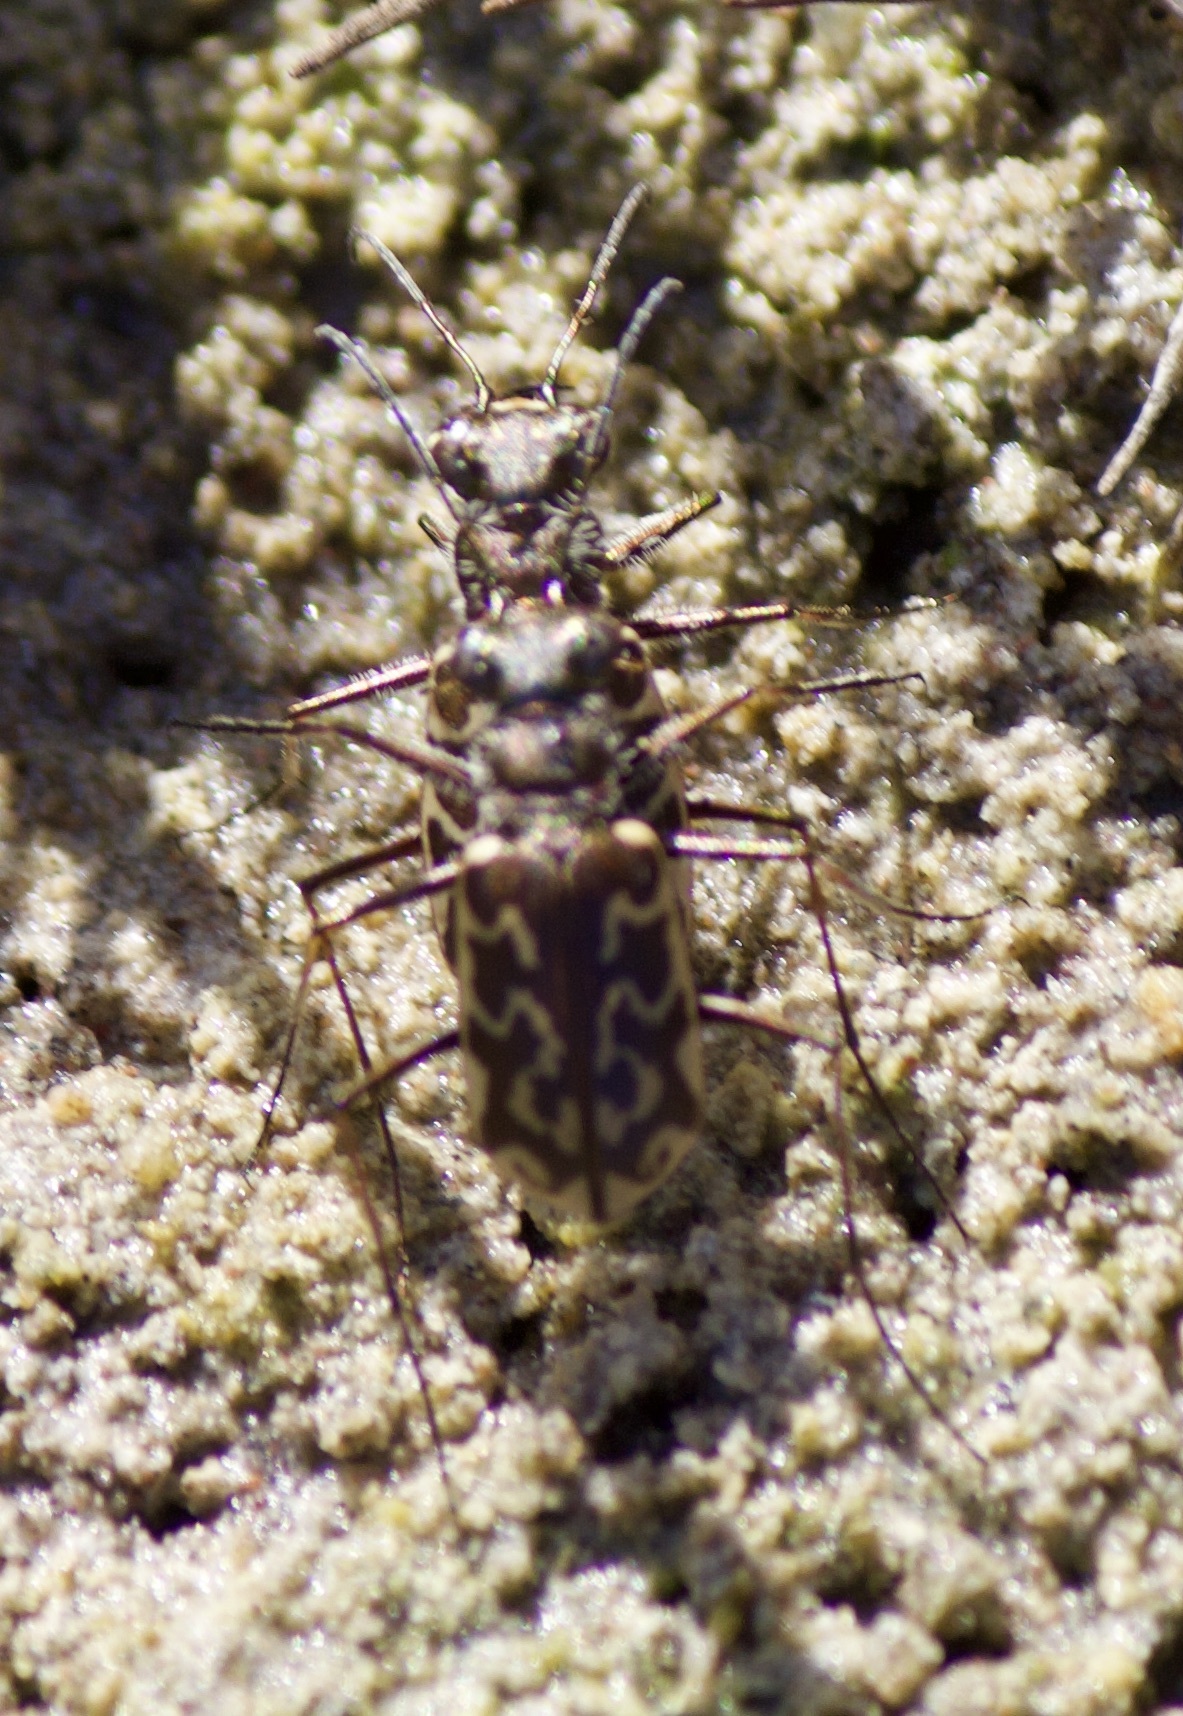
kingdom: Animalia
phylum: Arthropoda
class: Insecta
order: Coleoptera
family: Carabidae
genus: Cicindela
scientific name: Cicindela trifasciata
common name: Mudflat tiger beetle
